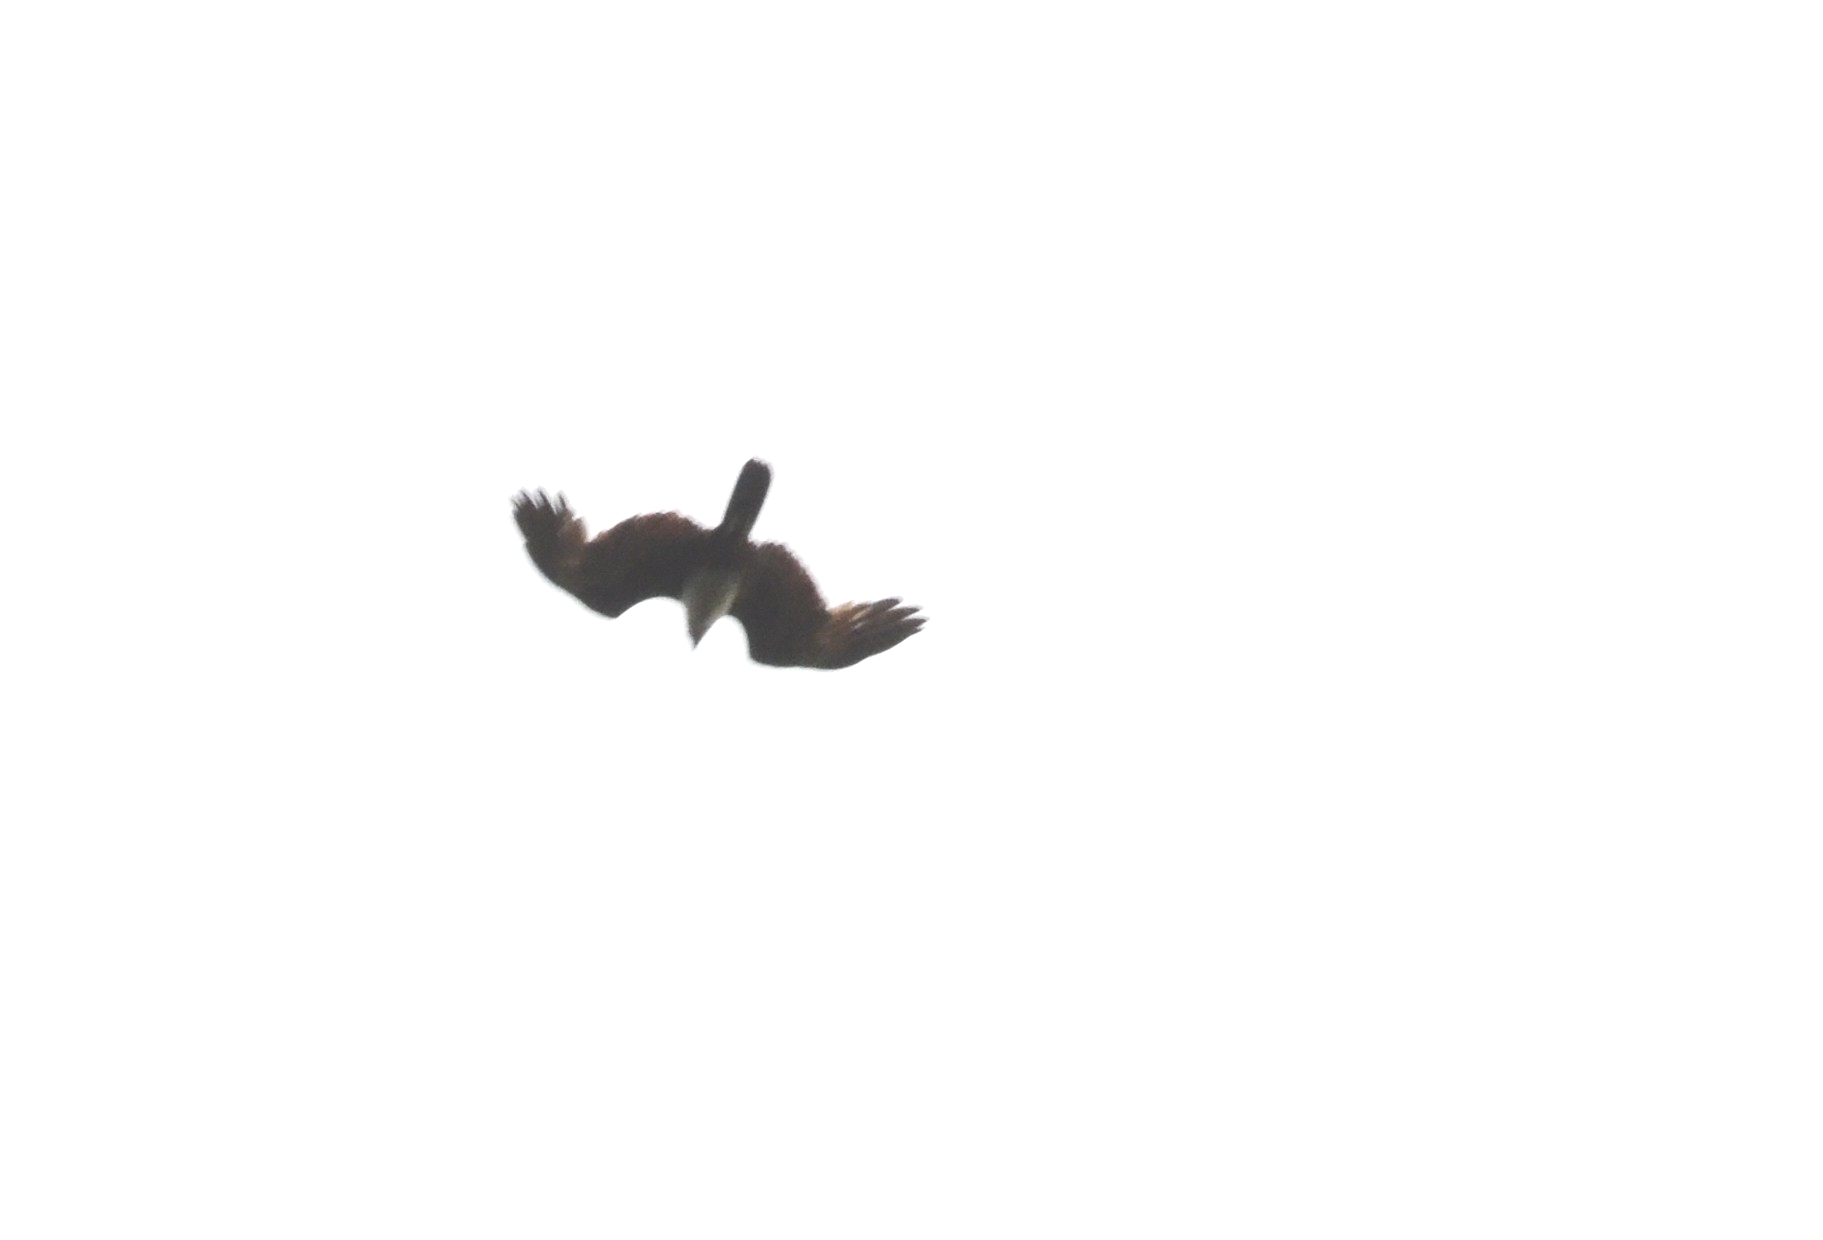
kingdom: Animalia
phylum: Chordata
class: Aves
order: Accipitriformes
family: Accipitridae
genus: Haliastur
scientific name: Haliastur indus
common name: Brahminy kite
